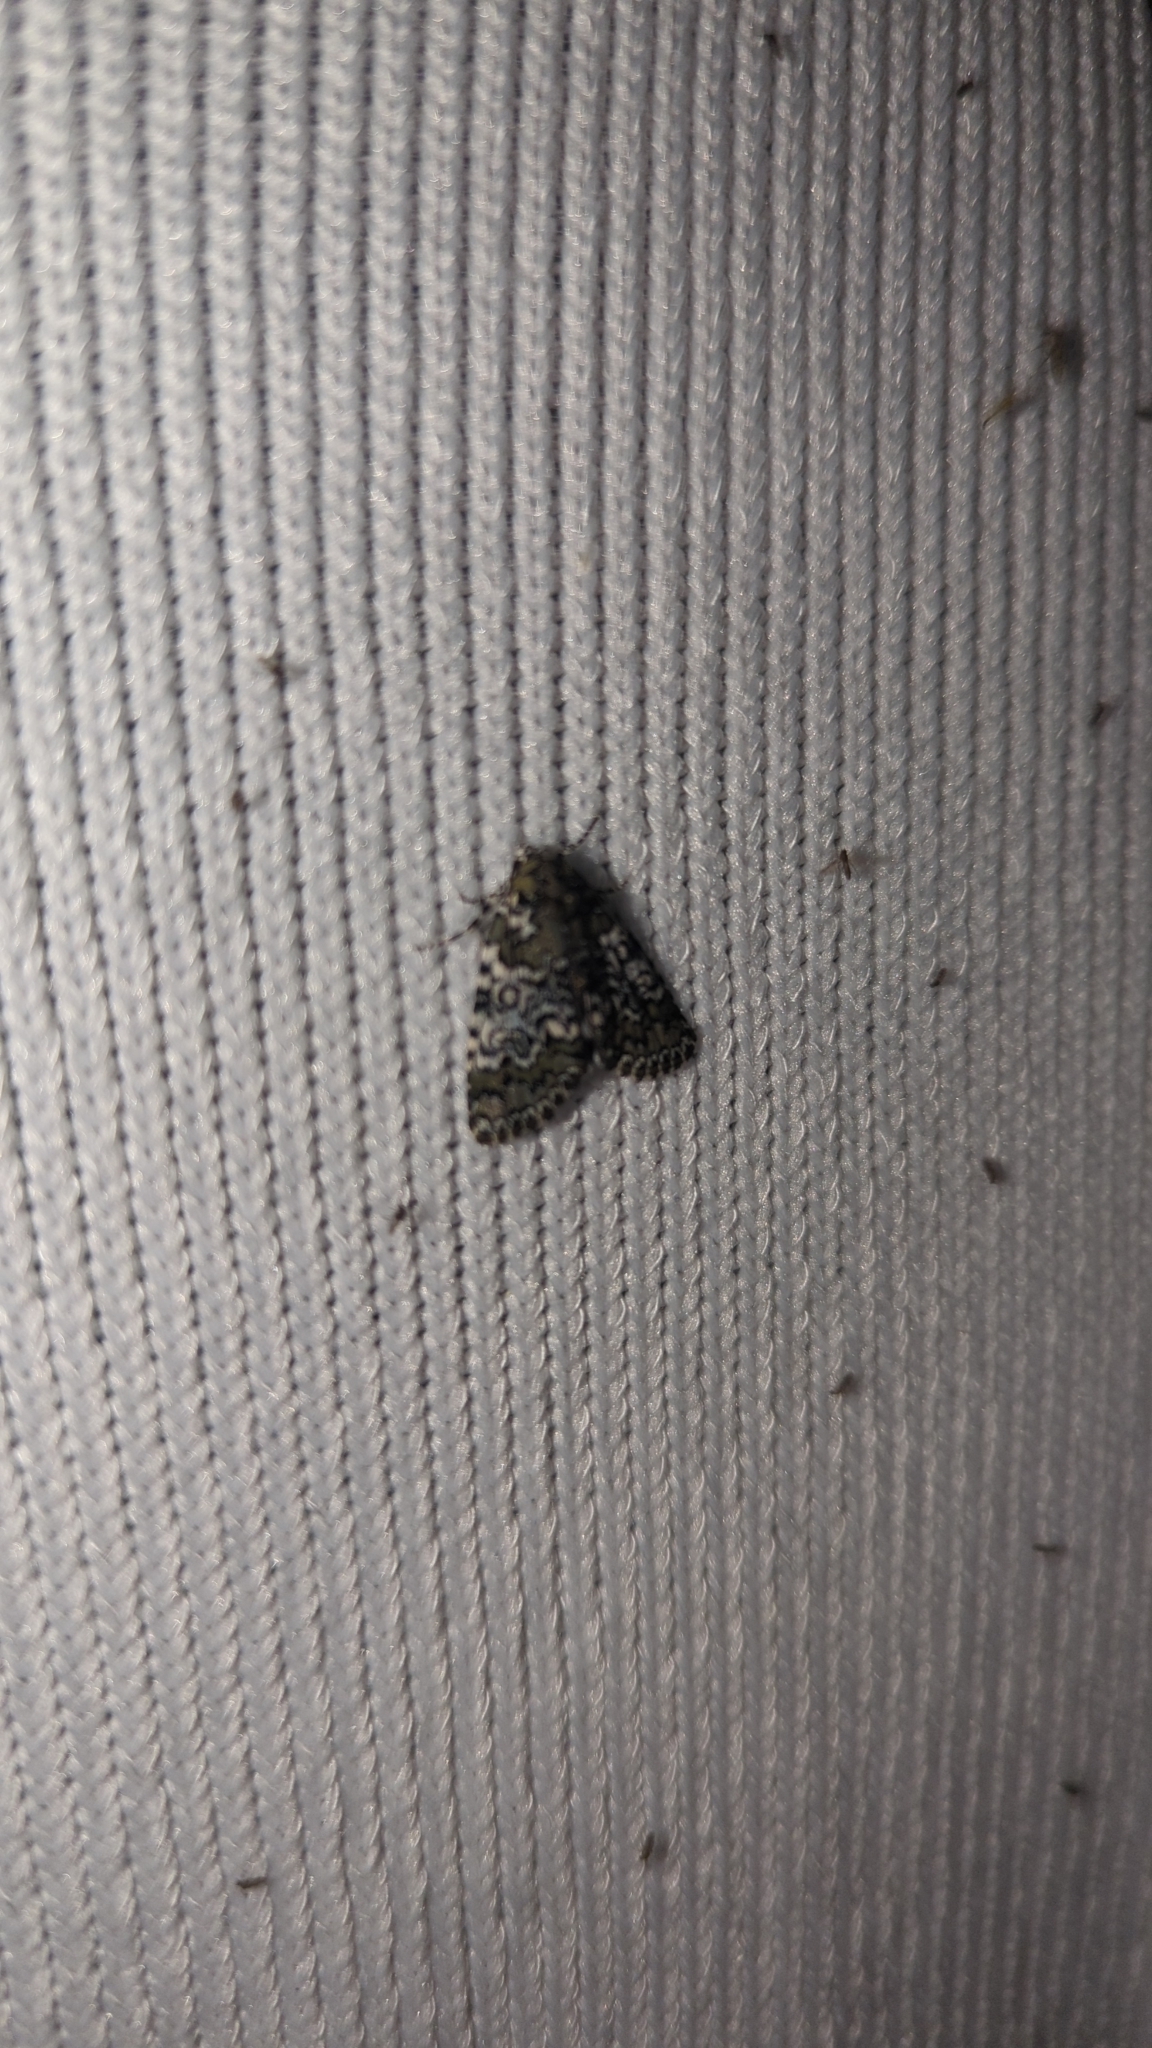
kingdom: Animalia
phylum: Arthropoda
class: Insecta
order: Lepidoptera
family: Noctuidae
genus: Cerma
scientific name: Cerma cora
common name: Bird dropping moth
